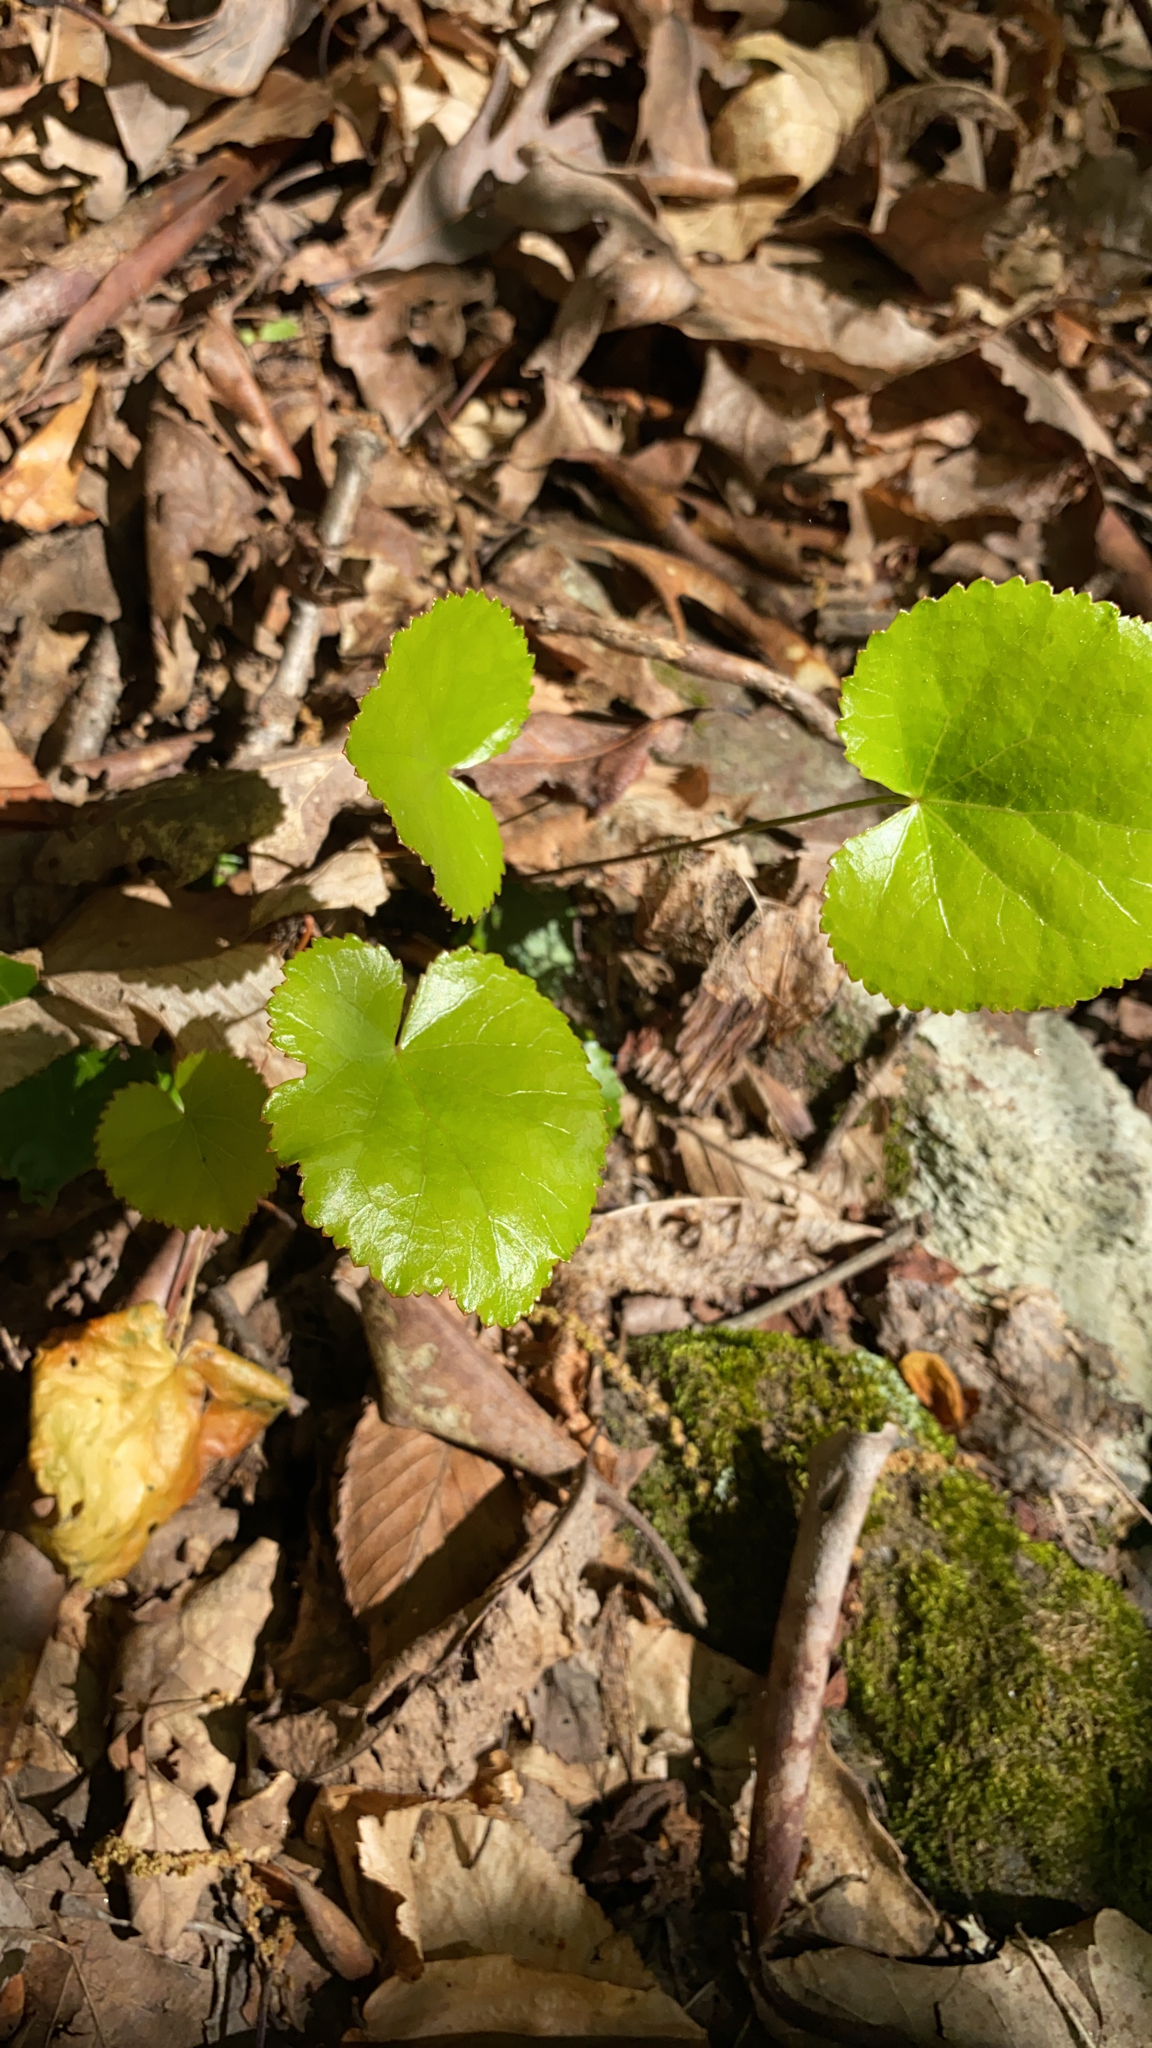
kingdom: Plantae
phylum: Tracheophyta
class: Magnoliopsida
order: Ericales
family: Diapensiaceae
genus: Galax
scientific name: Galax urceolata
